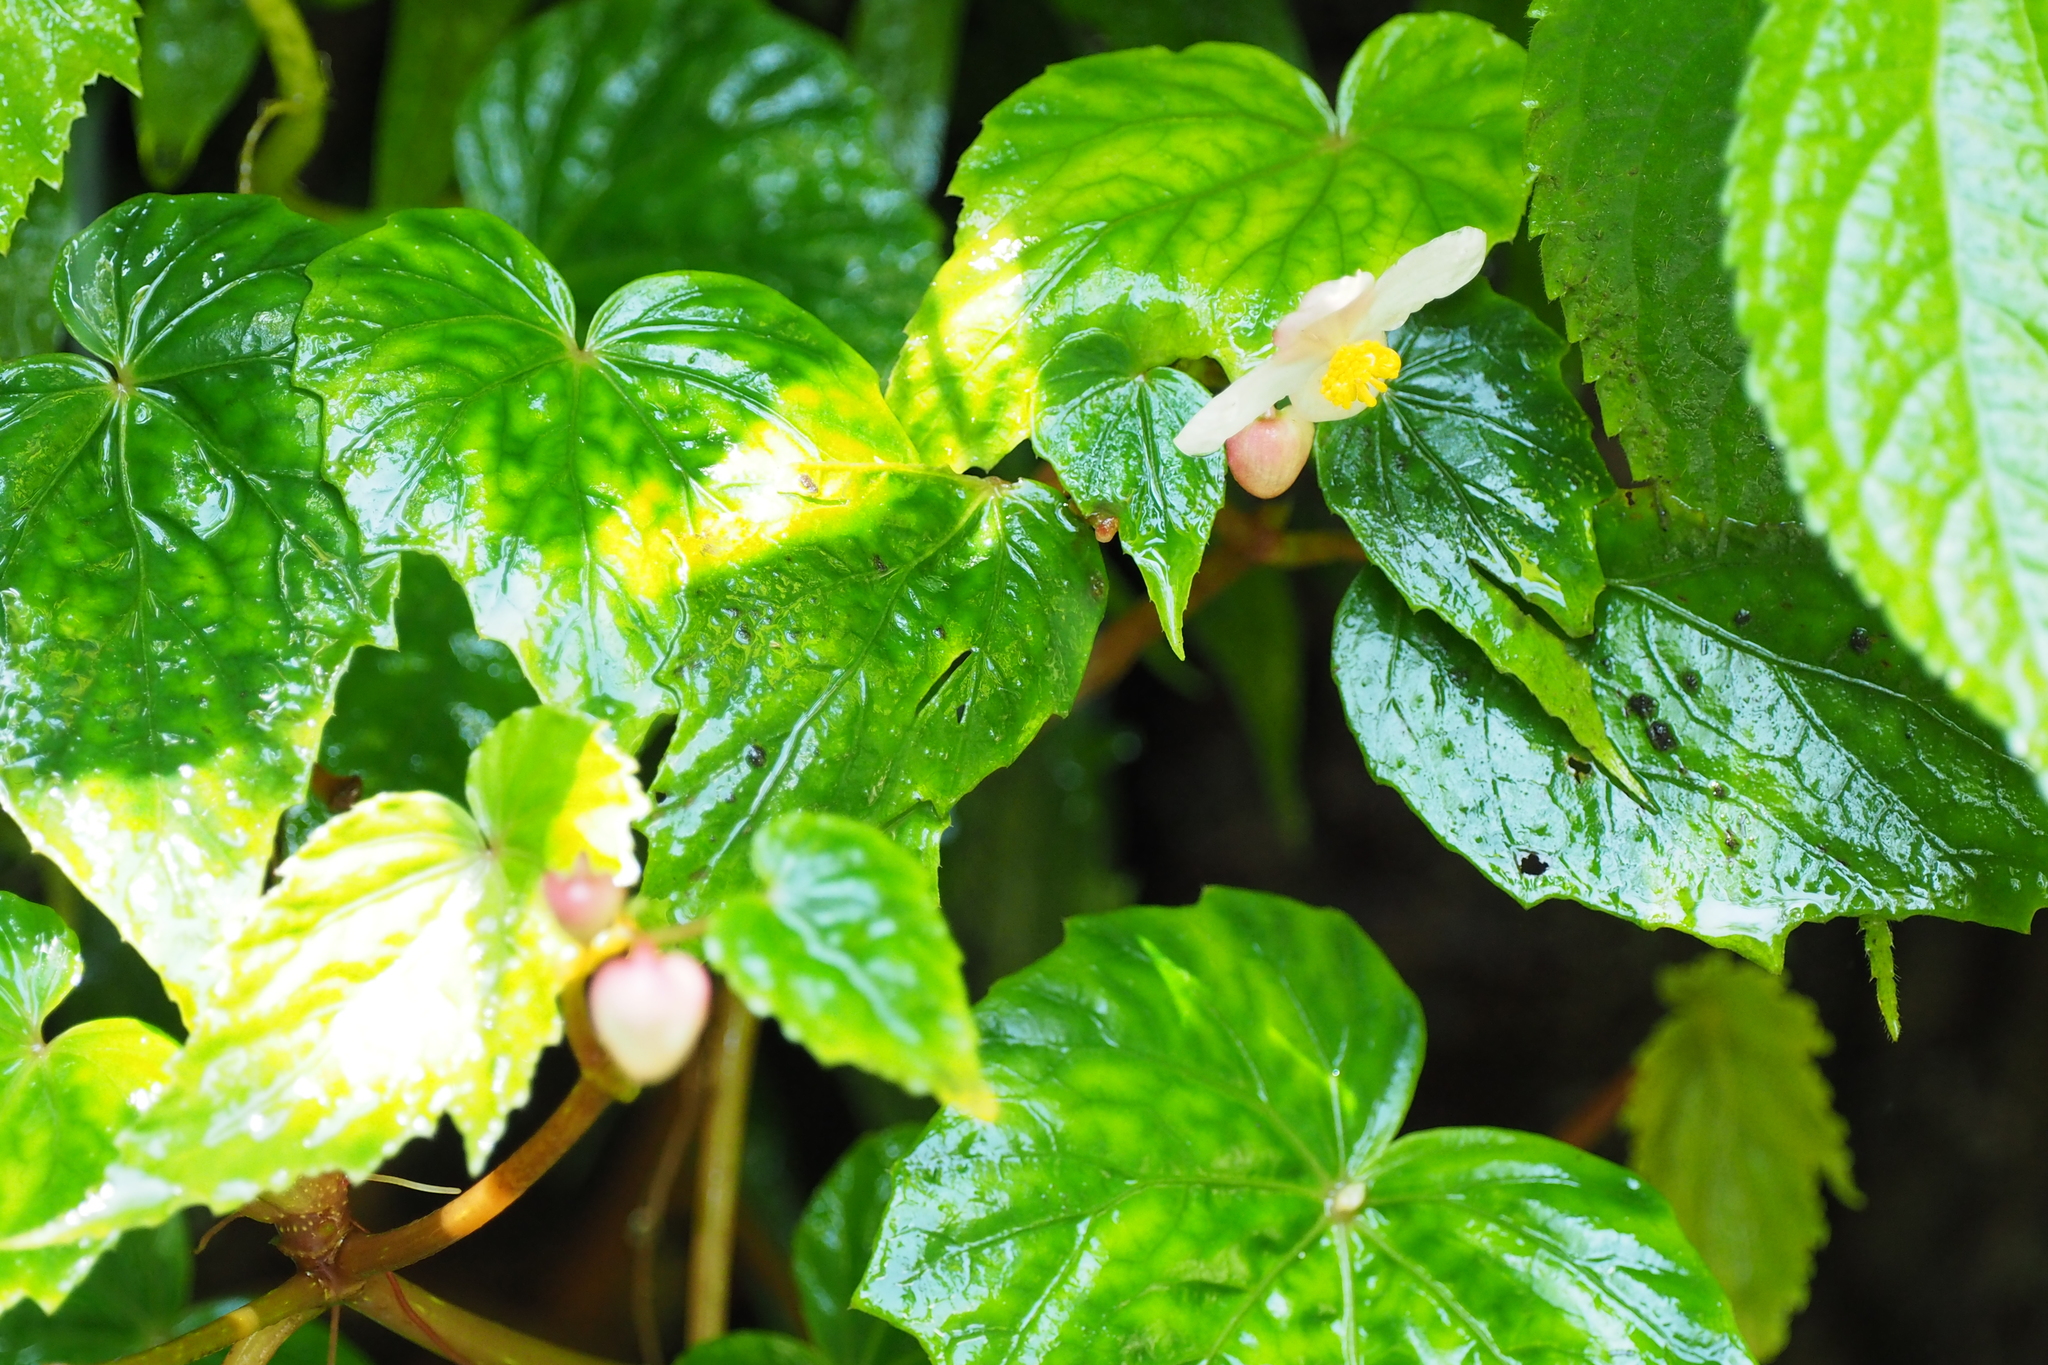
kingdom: Plantae
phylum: Tracheophyta
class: Magnoliopsida
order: Cucurbitales
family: Begoniaceae
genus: Begonia
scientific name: Begonia formosana
